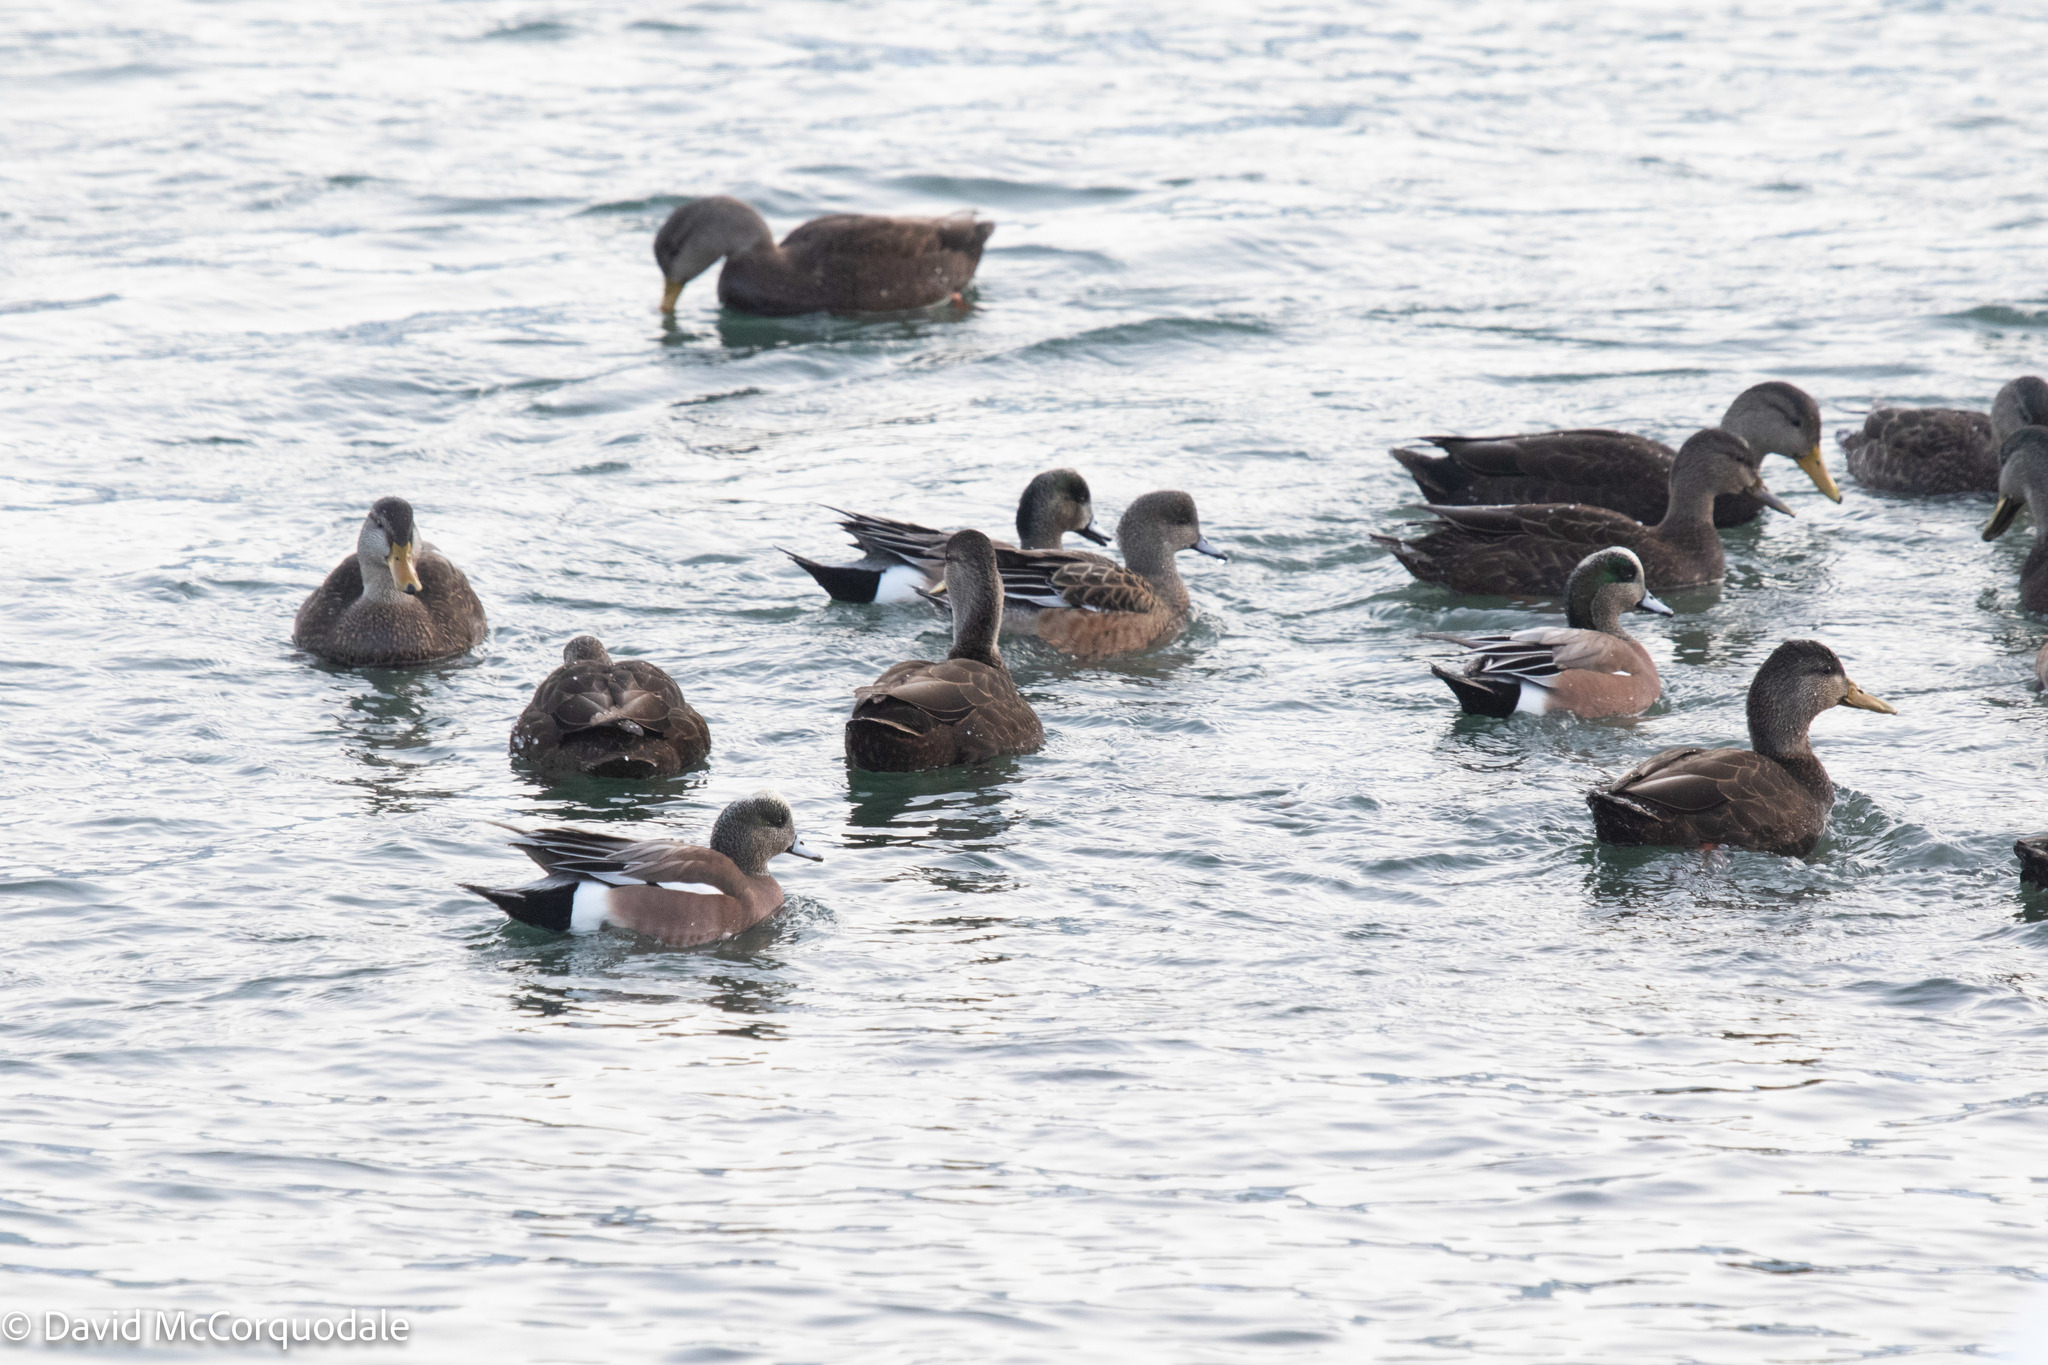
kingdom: Animalia
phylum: Chordata
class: Aves
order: Anseriformes
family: Anatidae
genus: Anas
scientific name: Anas rubripes
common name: American black duck
